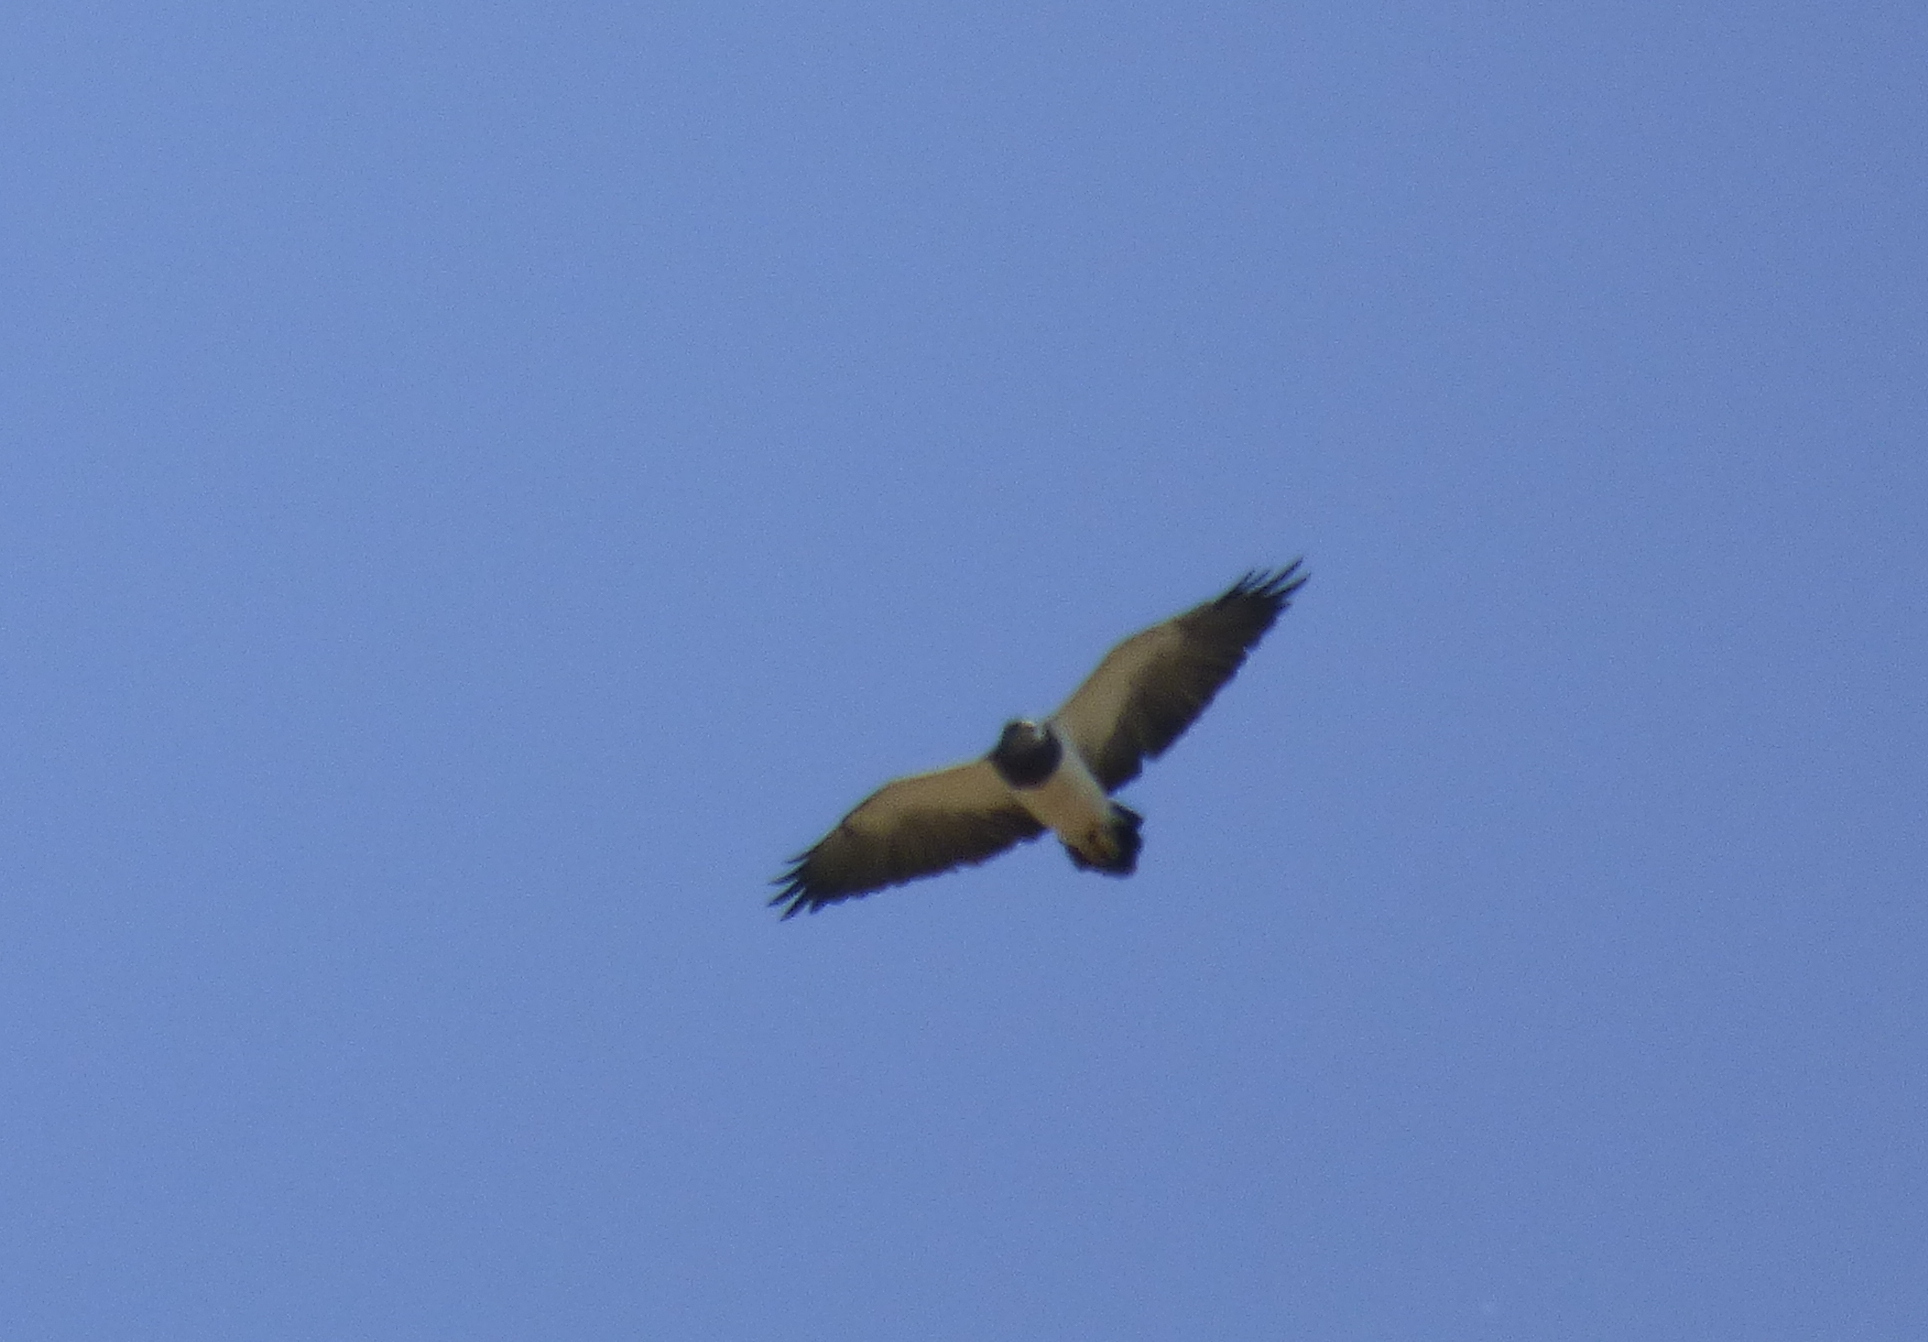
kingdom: Animalia
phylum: Chordata
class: Aves
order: Accipitriformes
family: Accipitridae
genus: Geranoaetus
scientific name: Geranoaetus melanoleucus
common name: Black-chested buzzard-eagle
